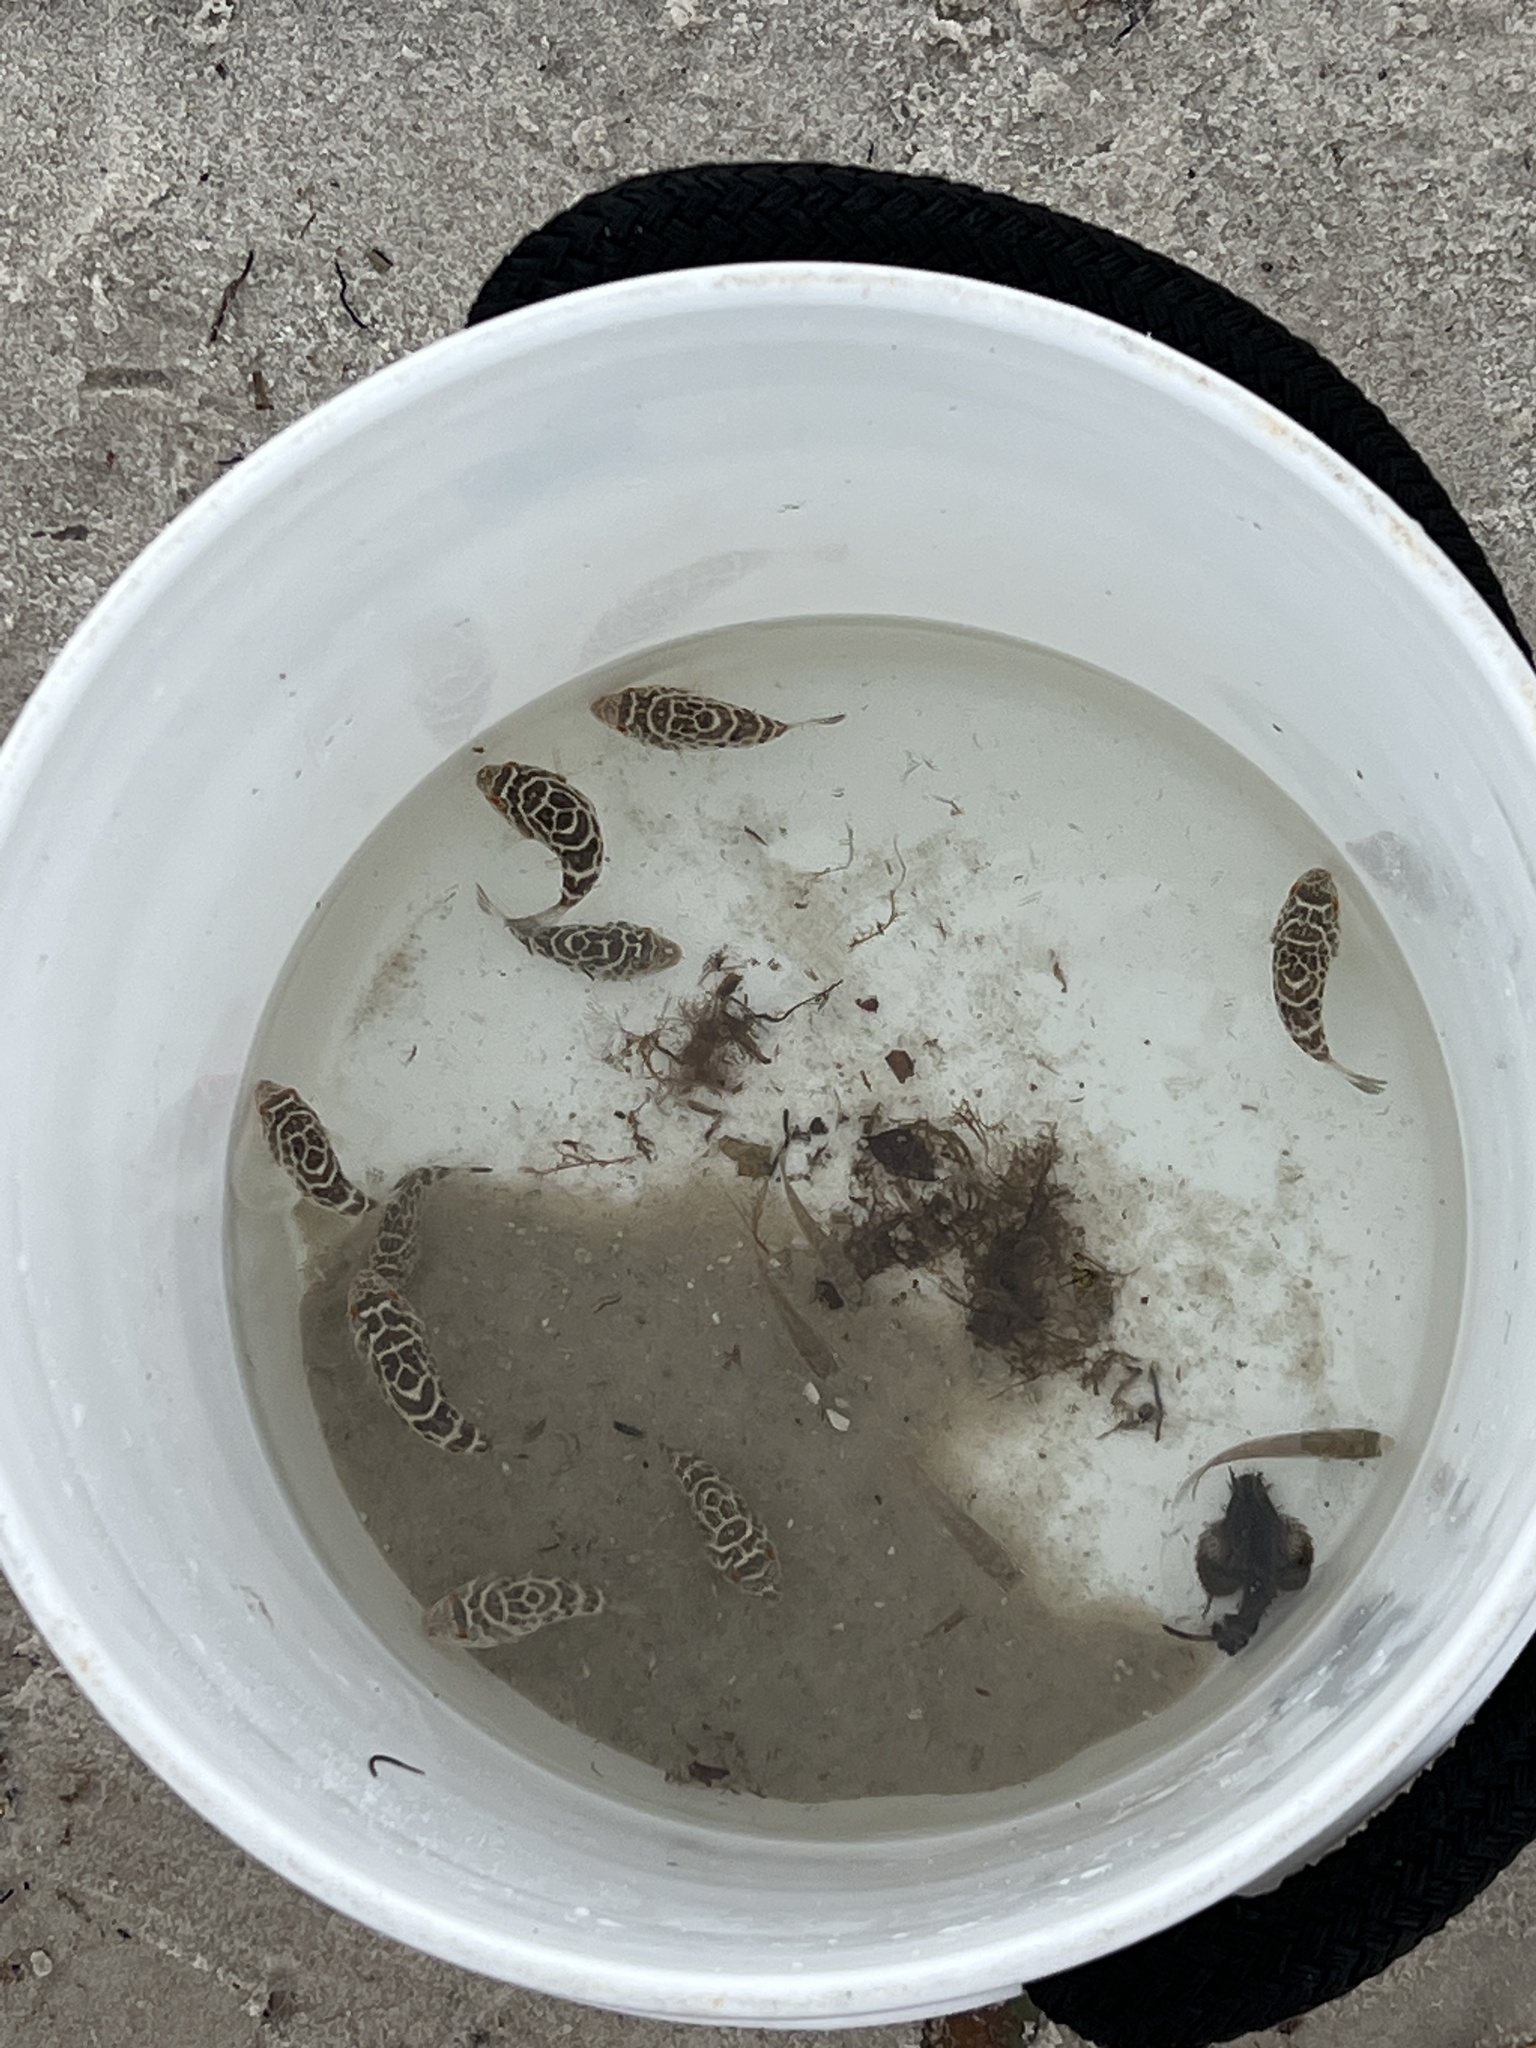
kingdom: Animalia
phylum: Chordata
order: Tetraodontiformes
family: Tetraodontidae
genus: Sphoeroides
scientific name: Sphoeroides testudineus
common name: Checkered puffer
